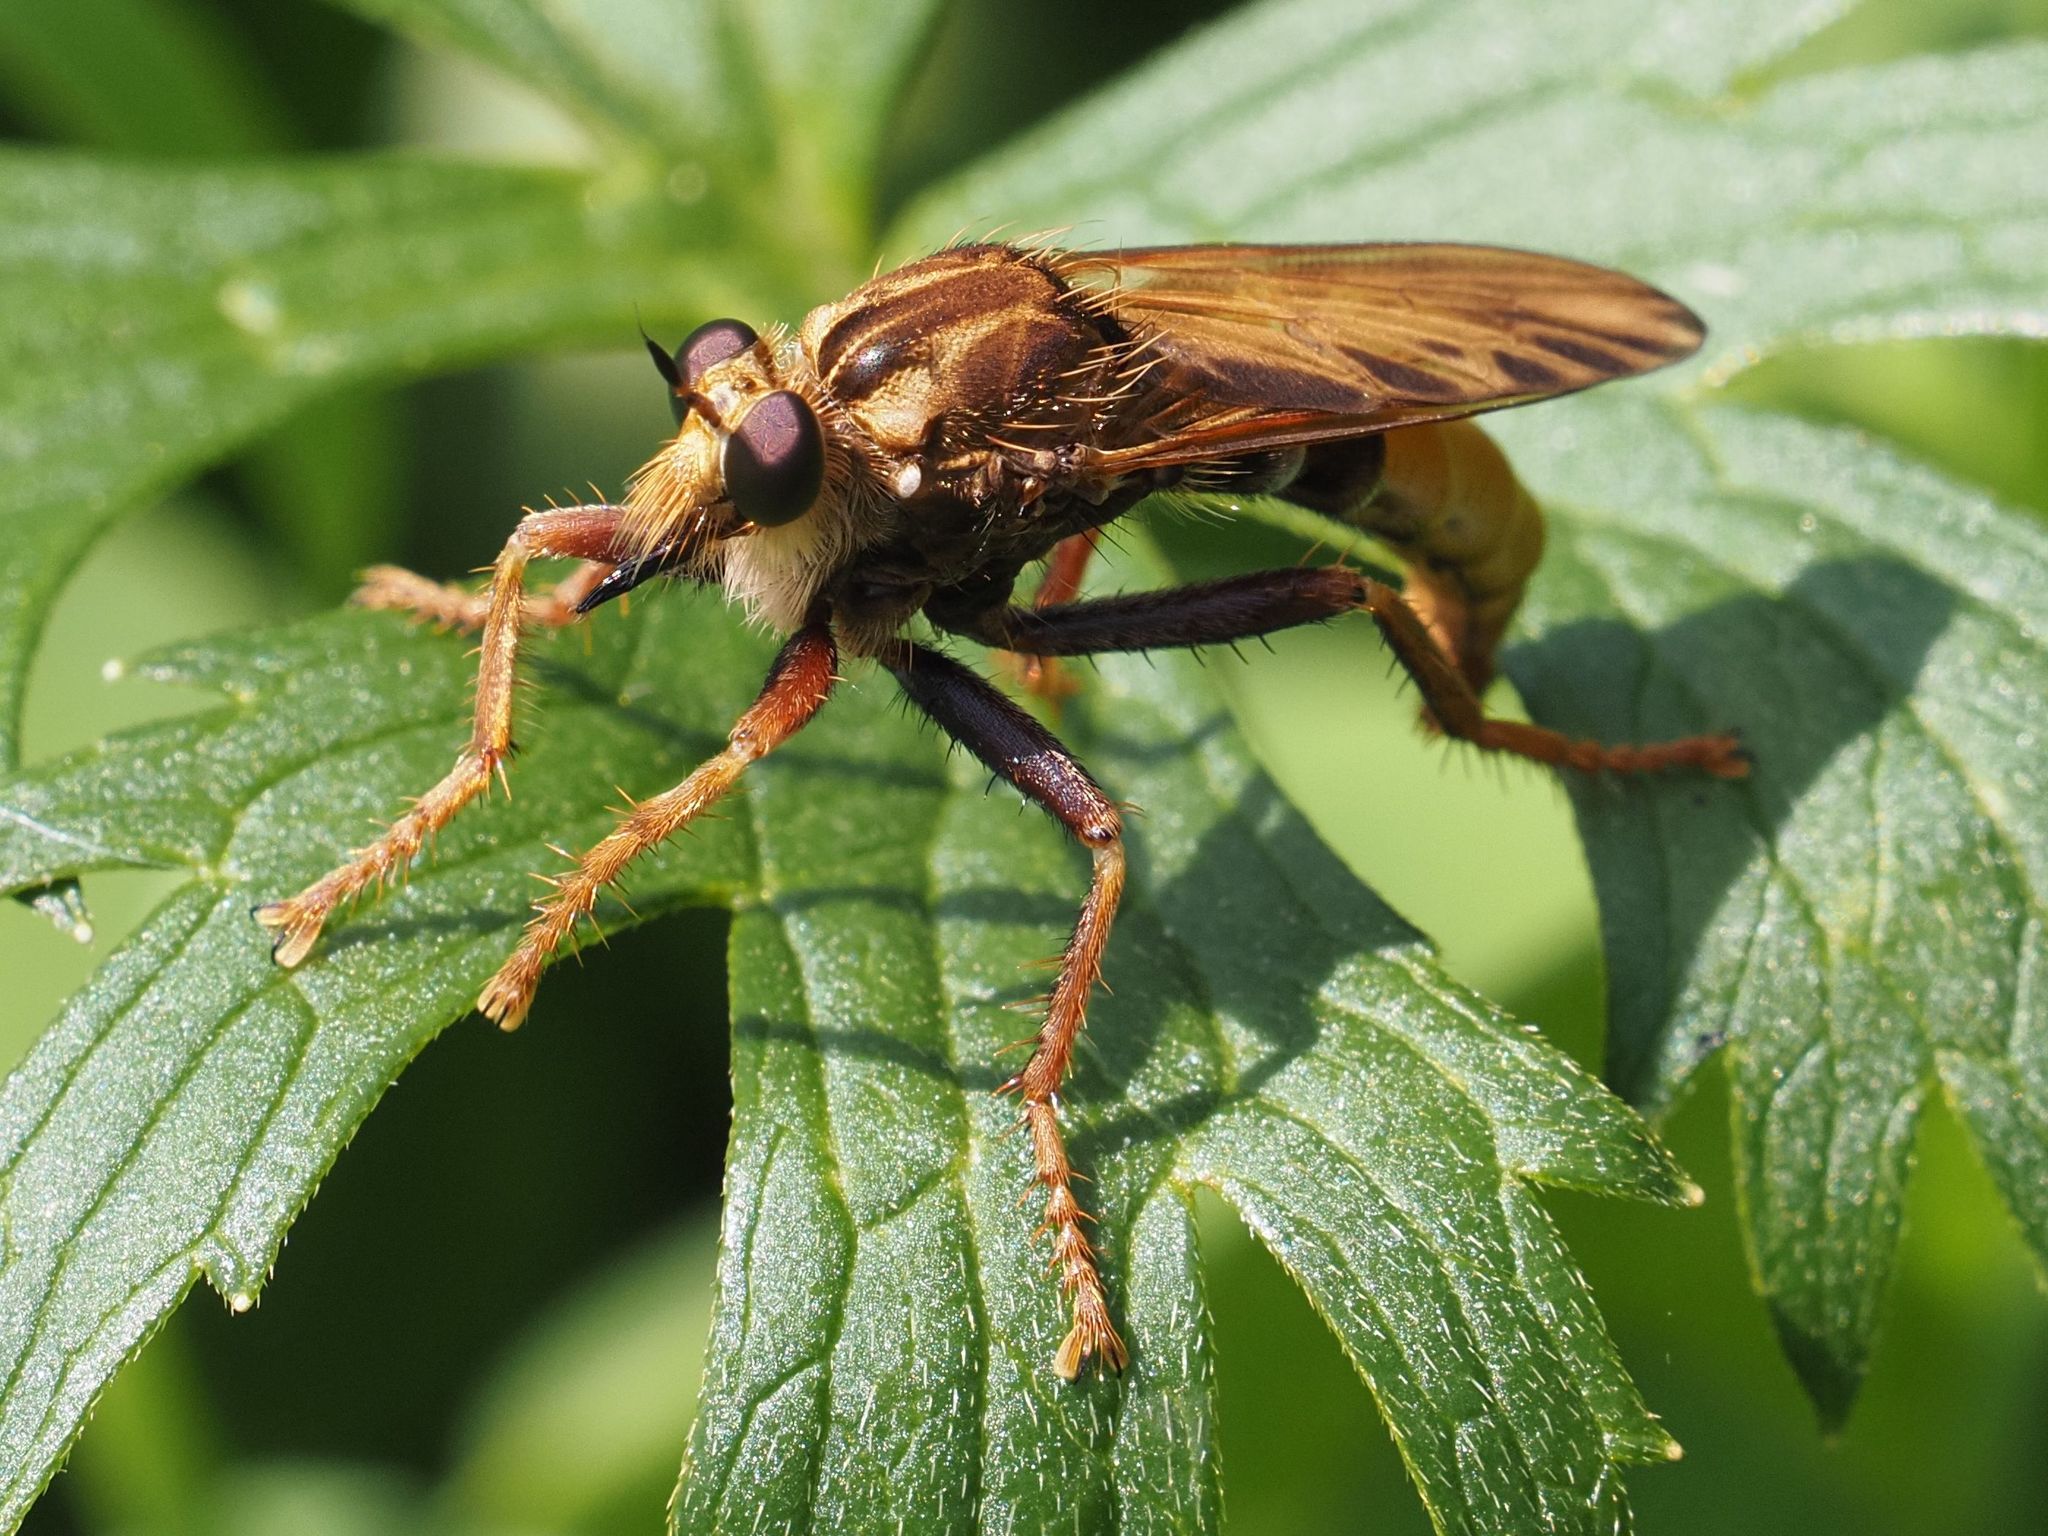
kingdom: Animalia
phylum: Arthropoda
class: Insecta
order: Diptera
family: Asilidae
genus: Asilus
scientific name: Asilus crabroniformis
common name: Hornet robberfly
